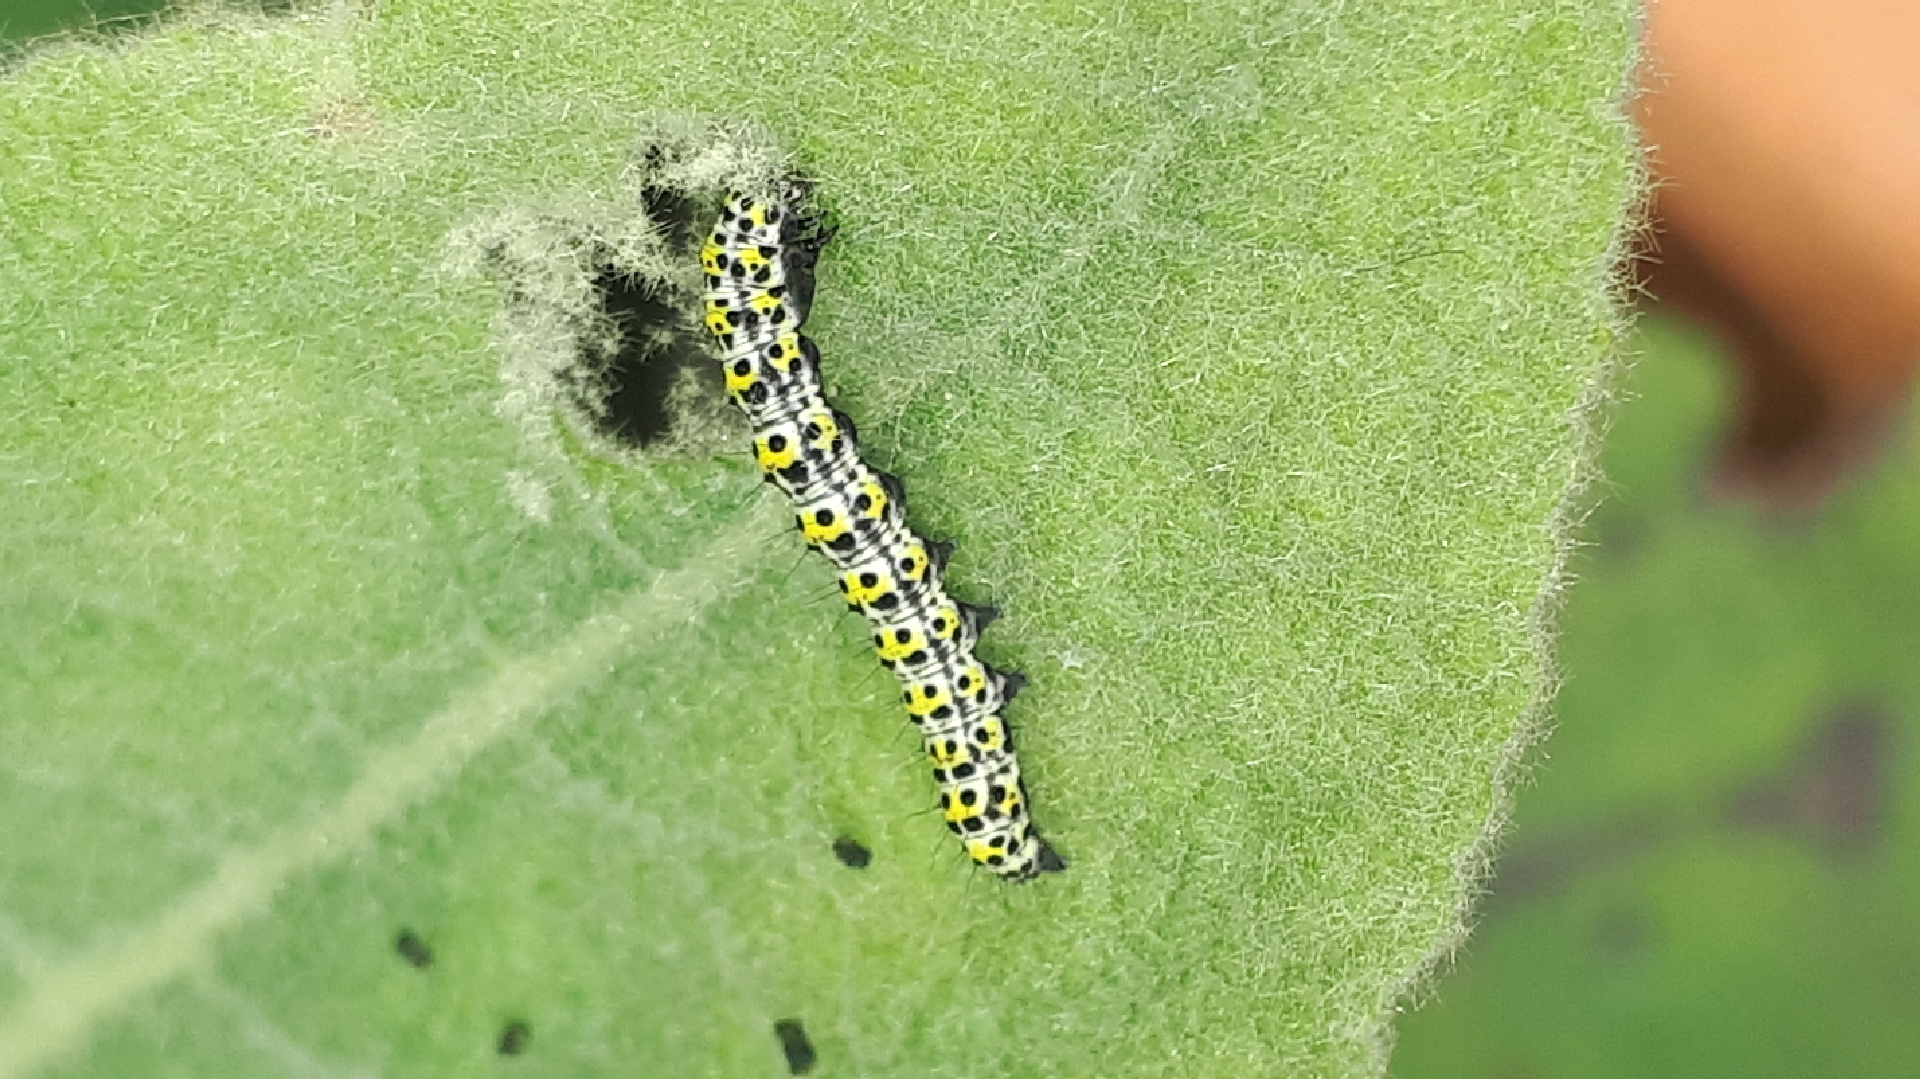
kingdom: Animalia
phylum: Arthropoda
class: Insecta
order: Lepidoptera
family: Noctuidae
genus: Cucullia
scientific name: Cucullia verbasci
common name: Mullein
